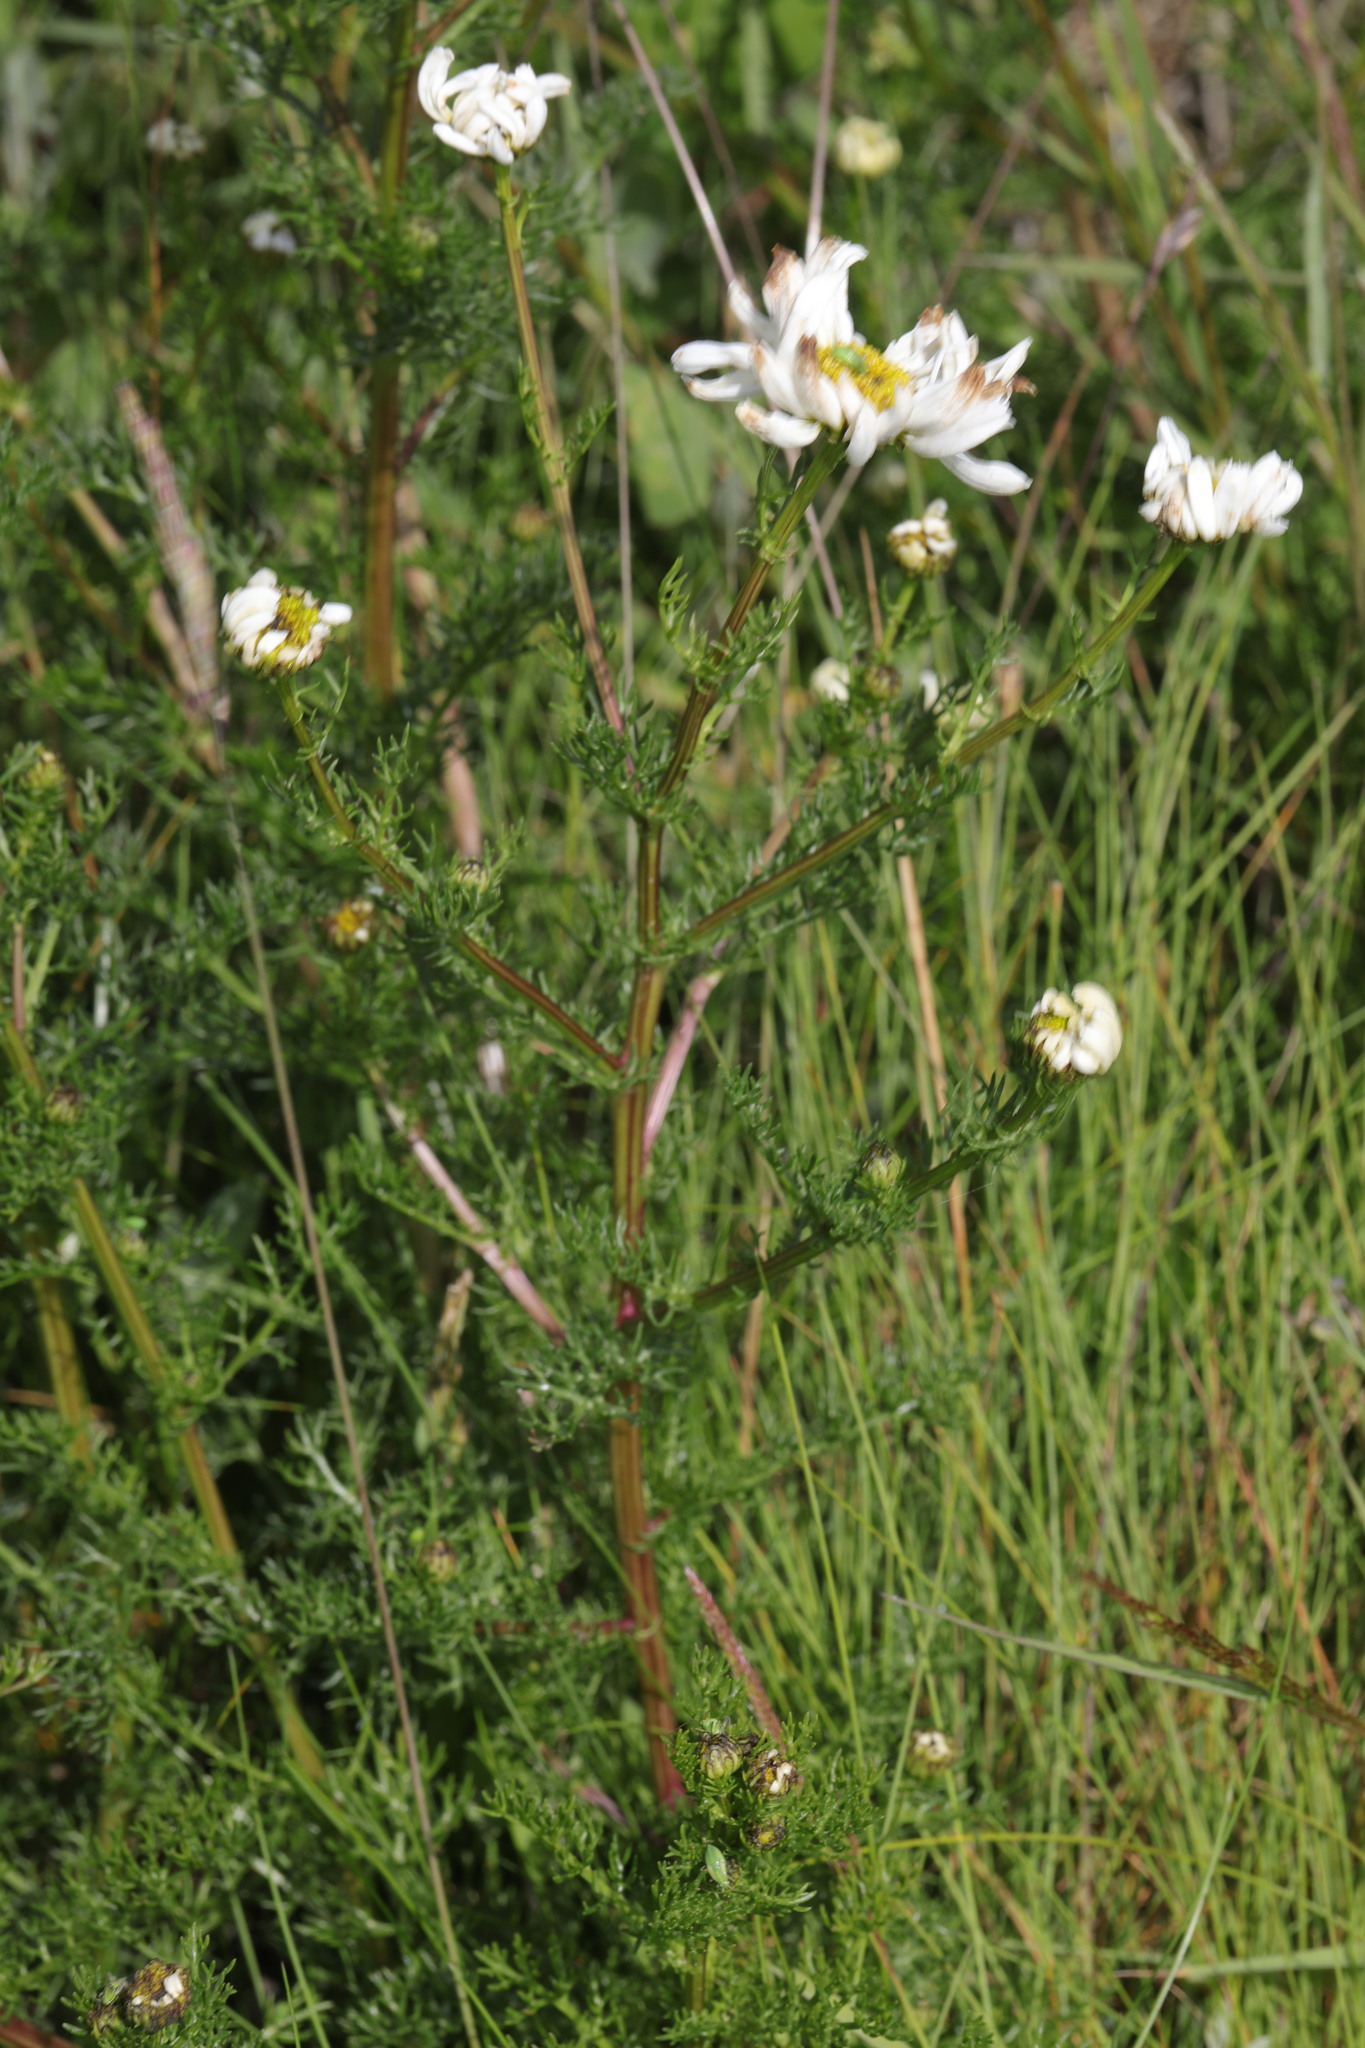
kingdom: Plantae
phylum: Tracheophyta
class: Magnoliopsida
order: Asterales
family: Asteraceae
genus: Tripleurospermum
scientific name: Tripleurospermum maritimum
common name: Sea mayweed
